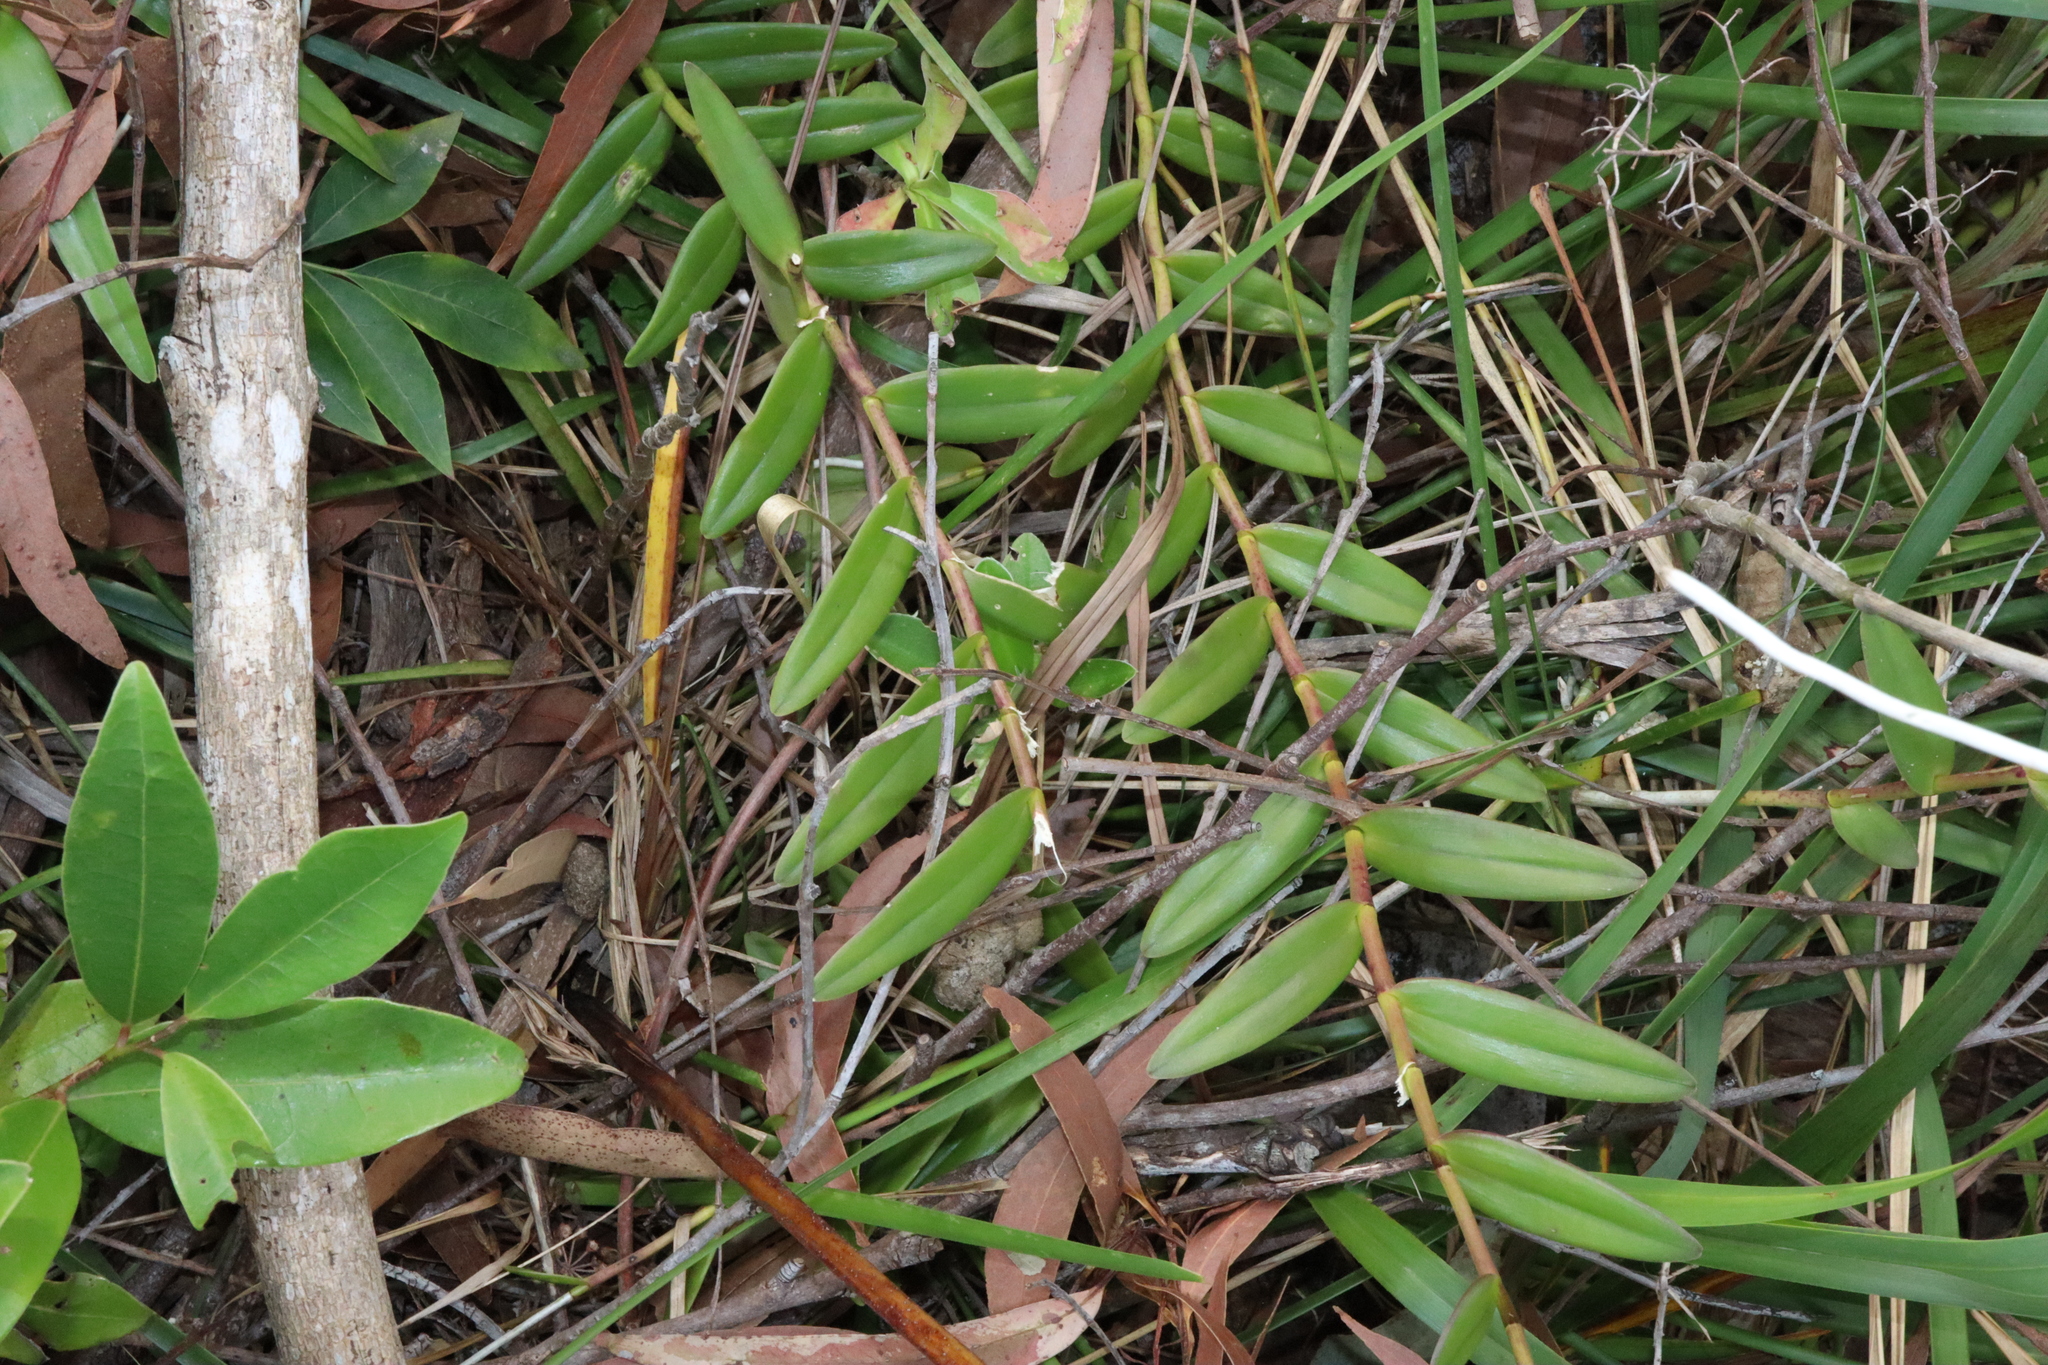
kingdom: Plantae
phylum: Tracheophyta
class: Liliopsida
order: Asparagales
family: Orchidaceae
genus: Epidendrum
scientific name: Epidendrum radicans
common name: Fire star orchid
